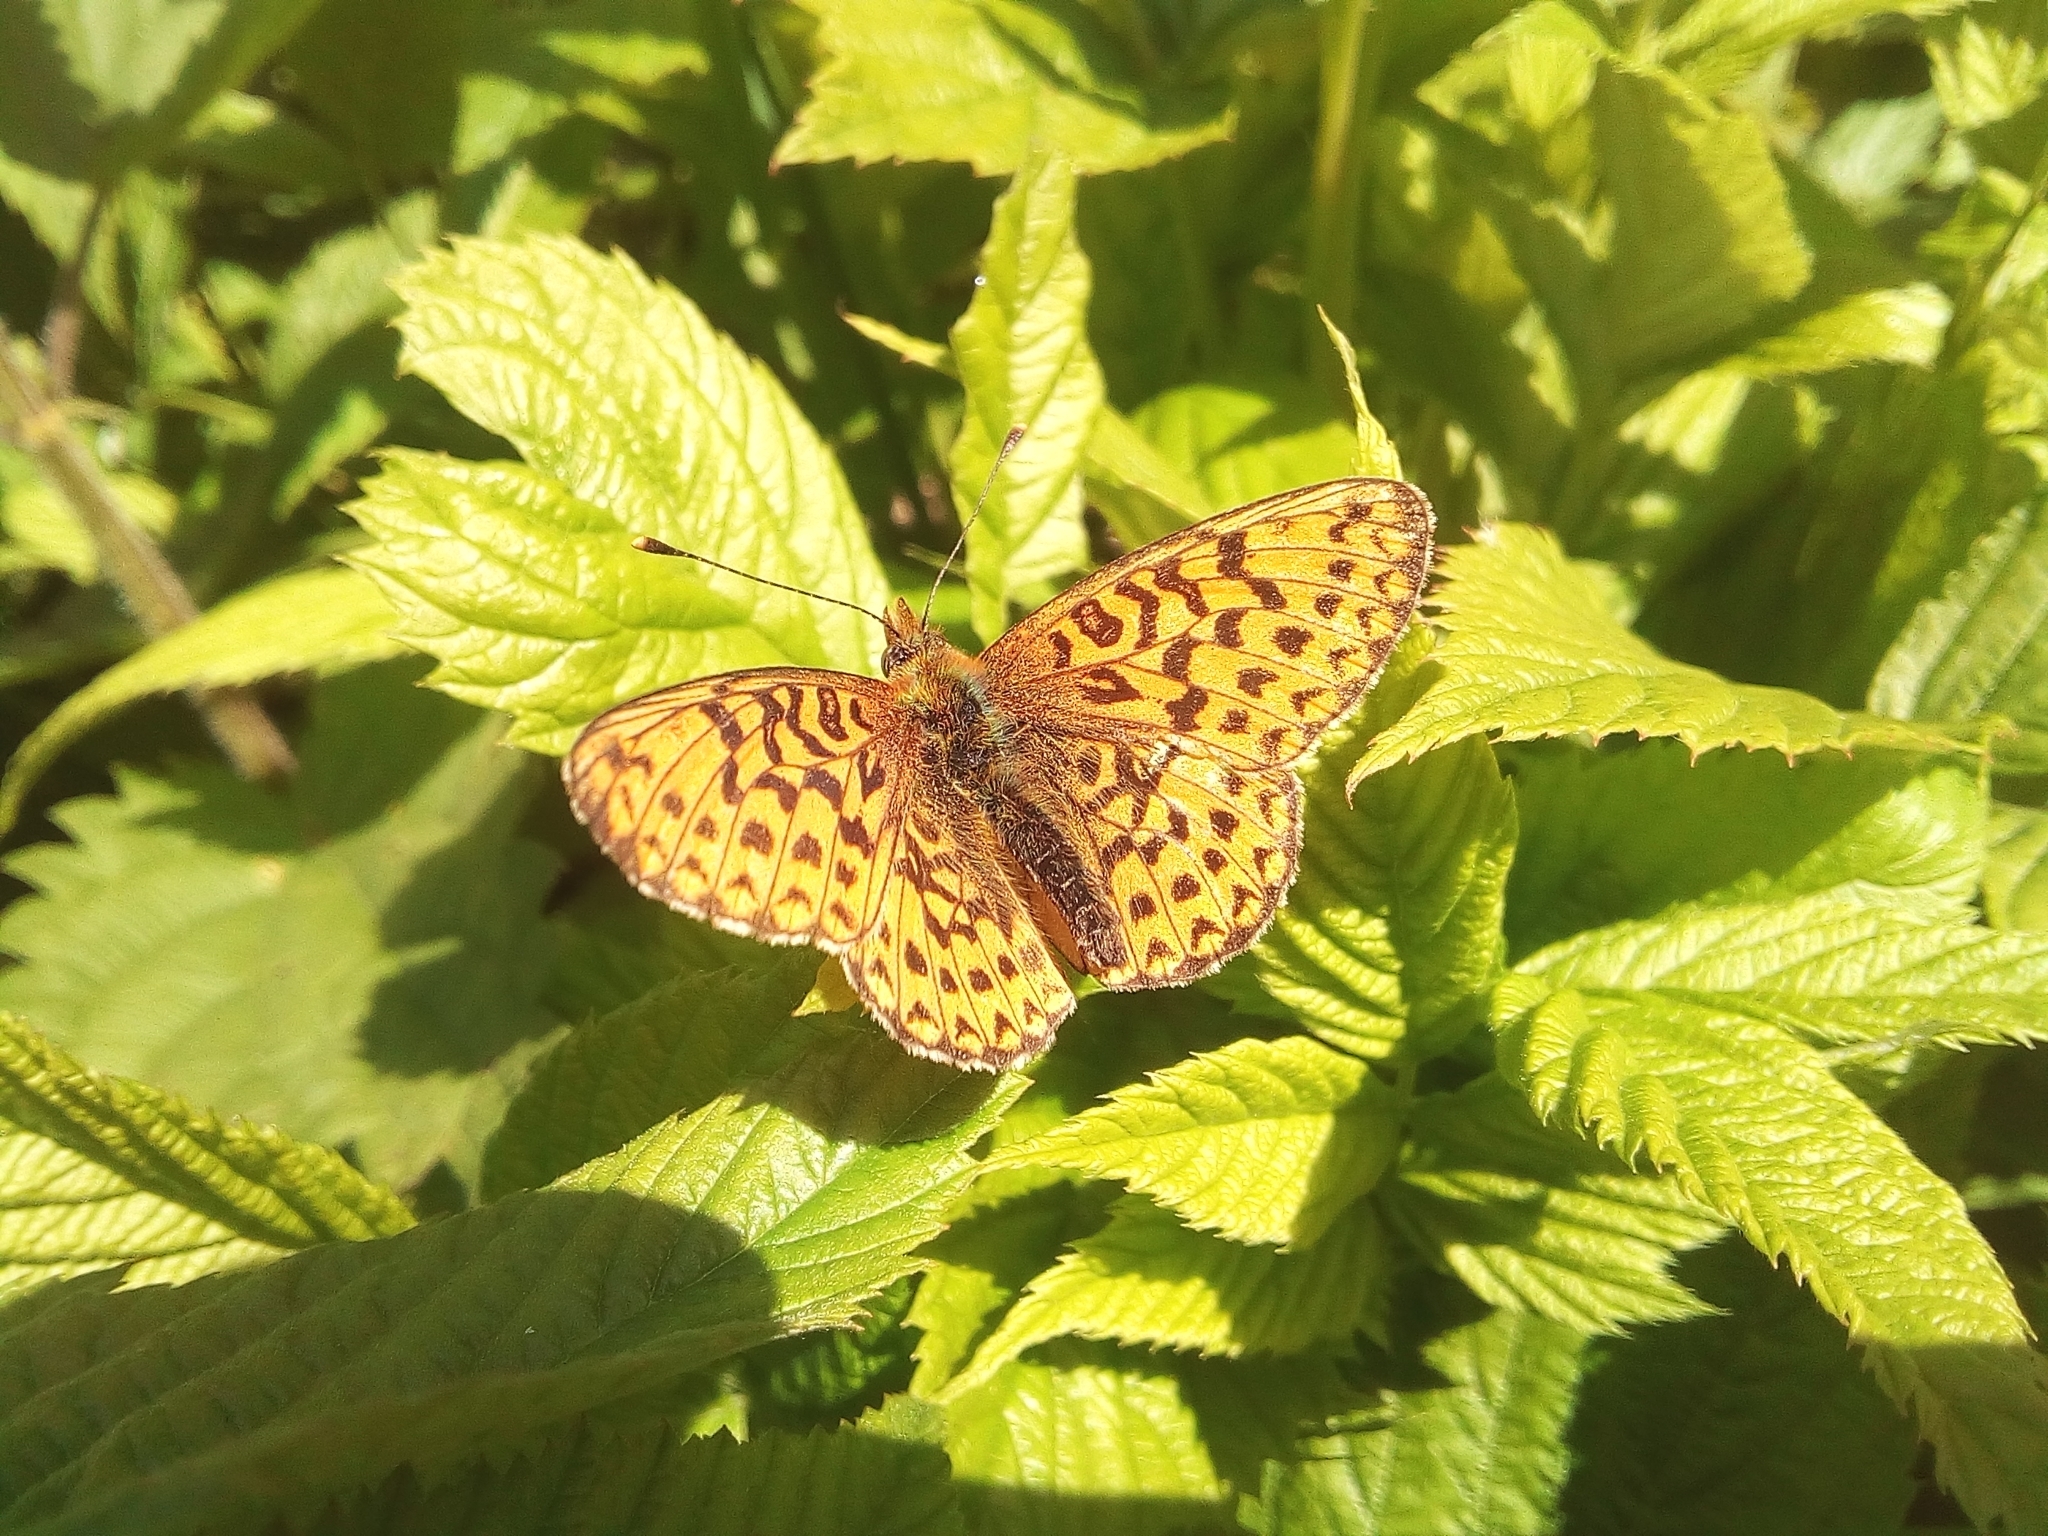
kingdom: Animalia
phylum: Arthropoda
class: Insecta
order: Lepidoptera
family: Nymphalidae
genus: Clossiana
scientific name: Clossiana euphrosyne
